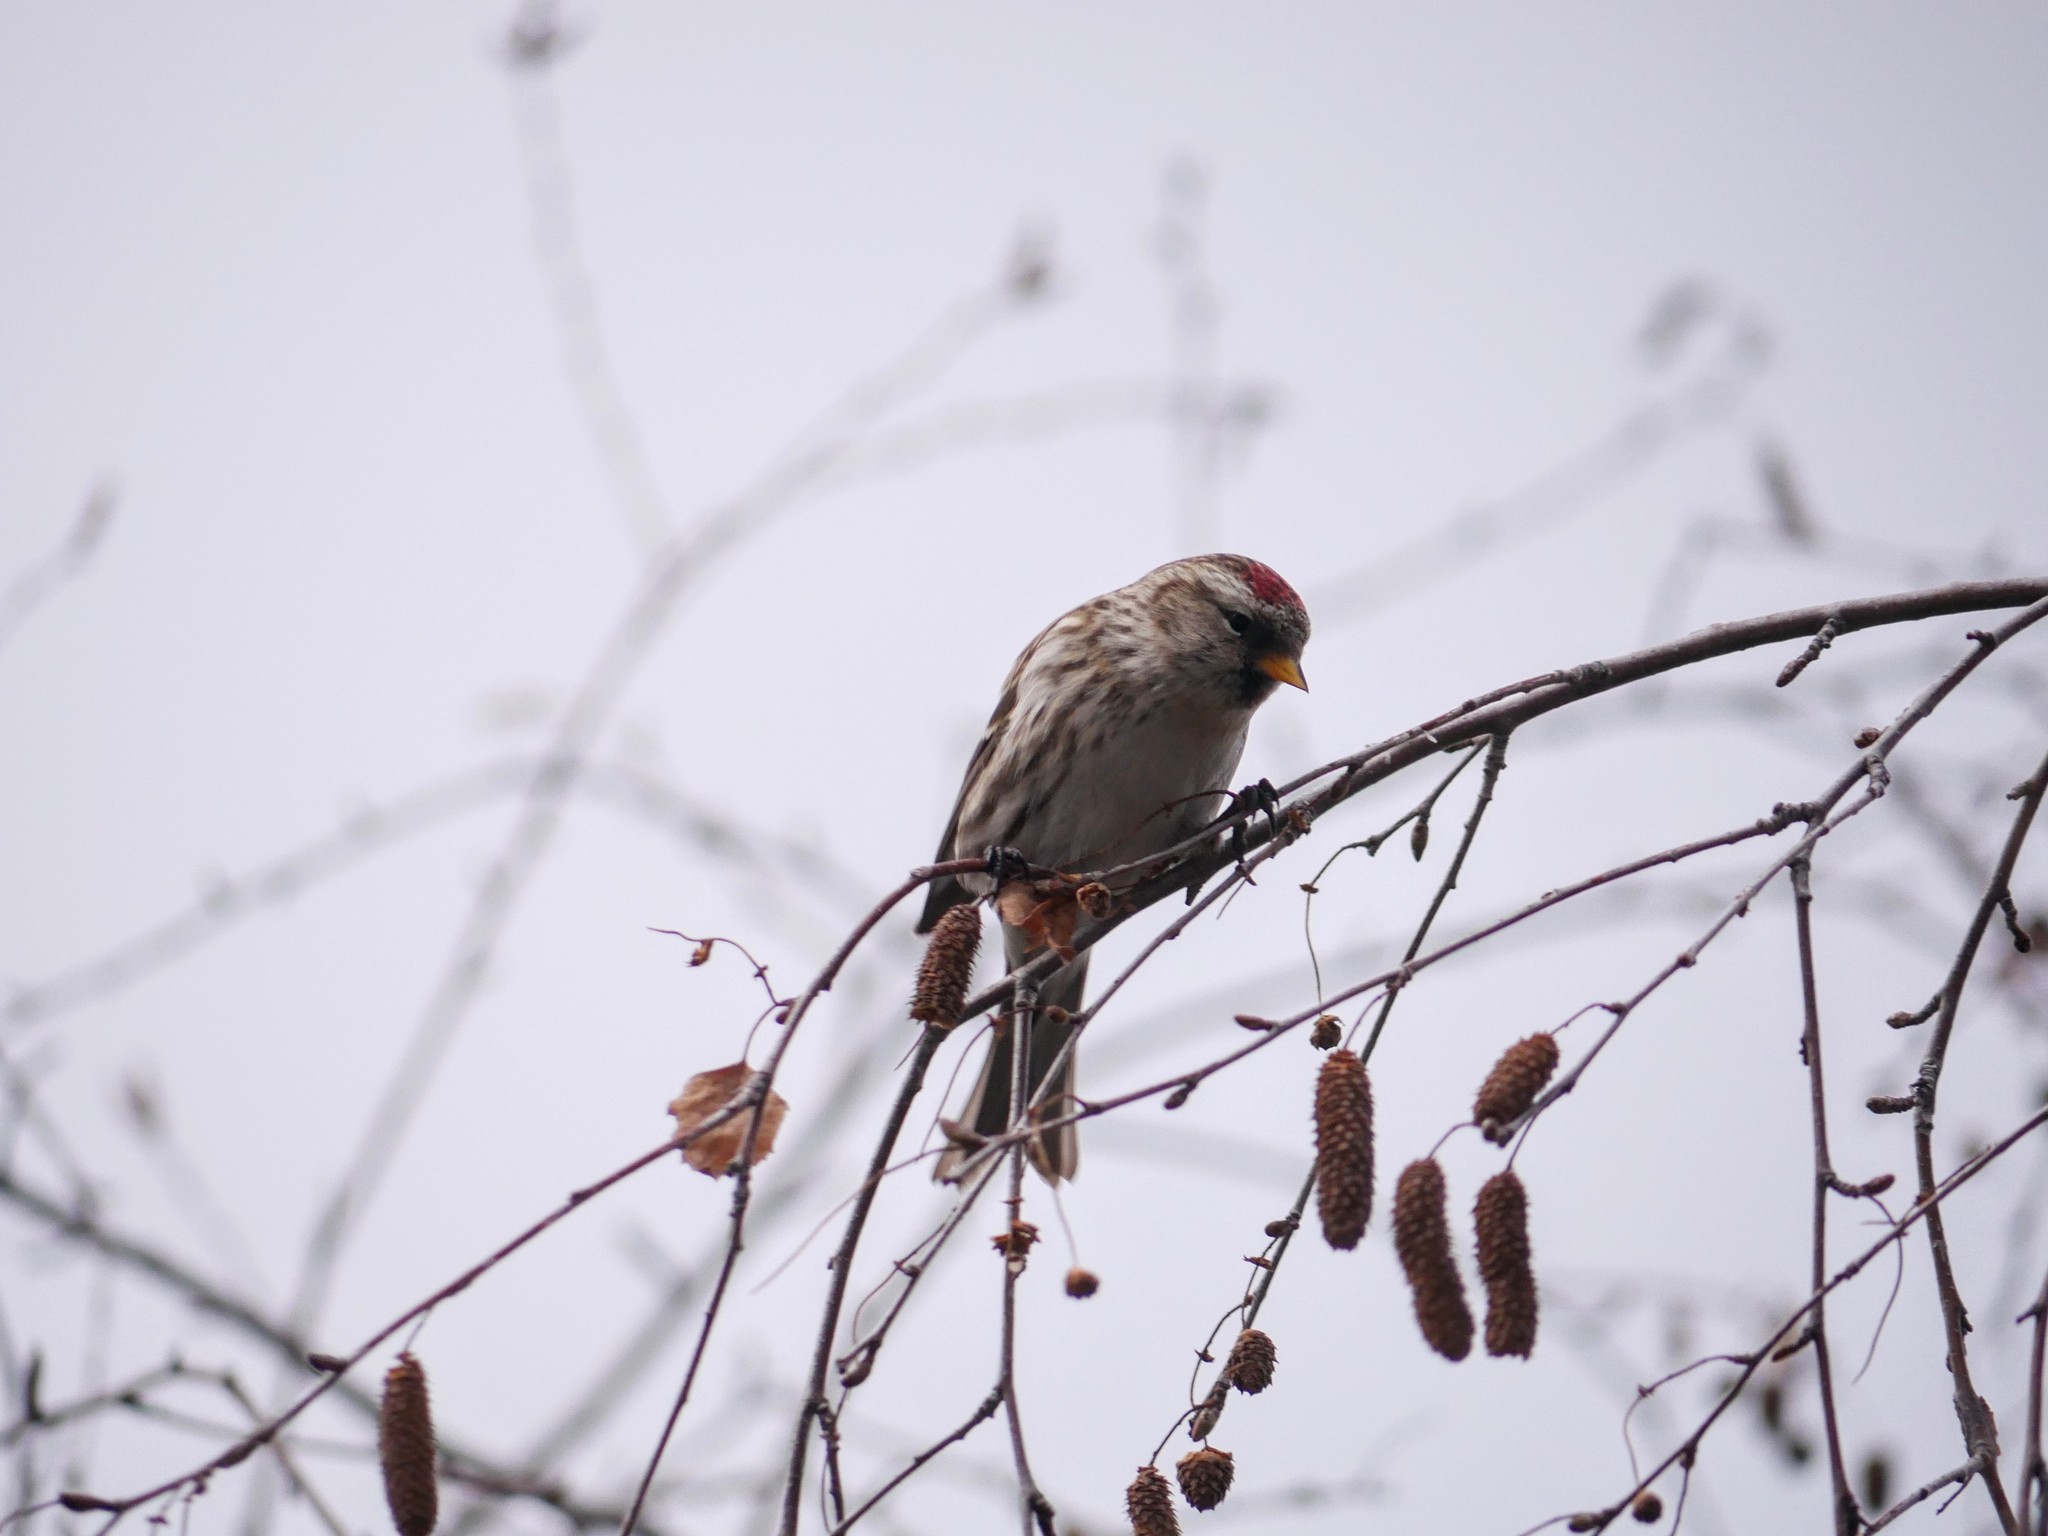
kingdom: Animalia
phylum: Chordata
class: Aves
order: Passeriformes
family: Fringillidae
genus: Acanthis
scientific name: Acanthis flammea
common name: Common redpoll
